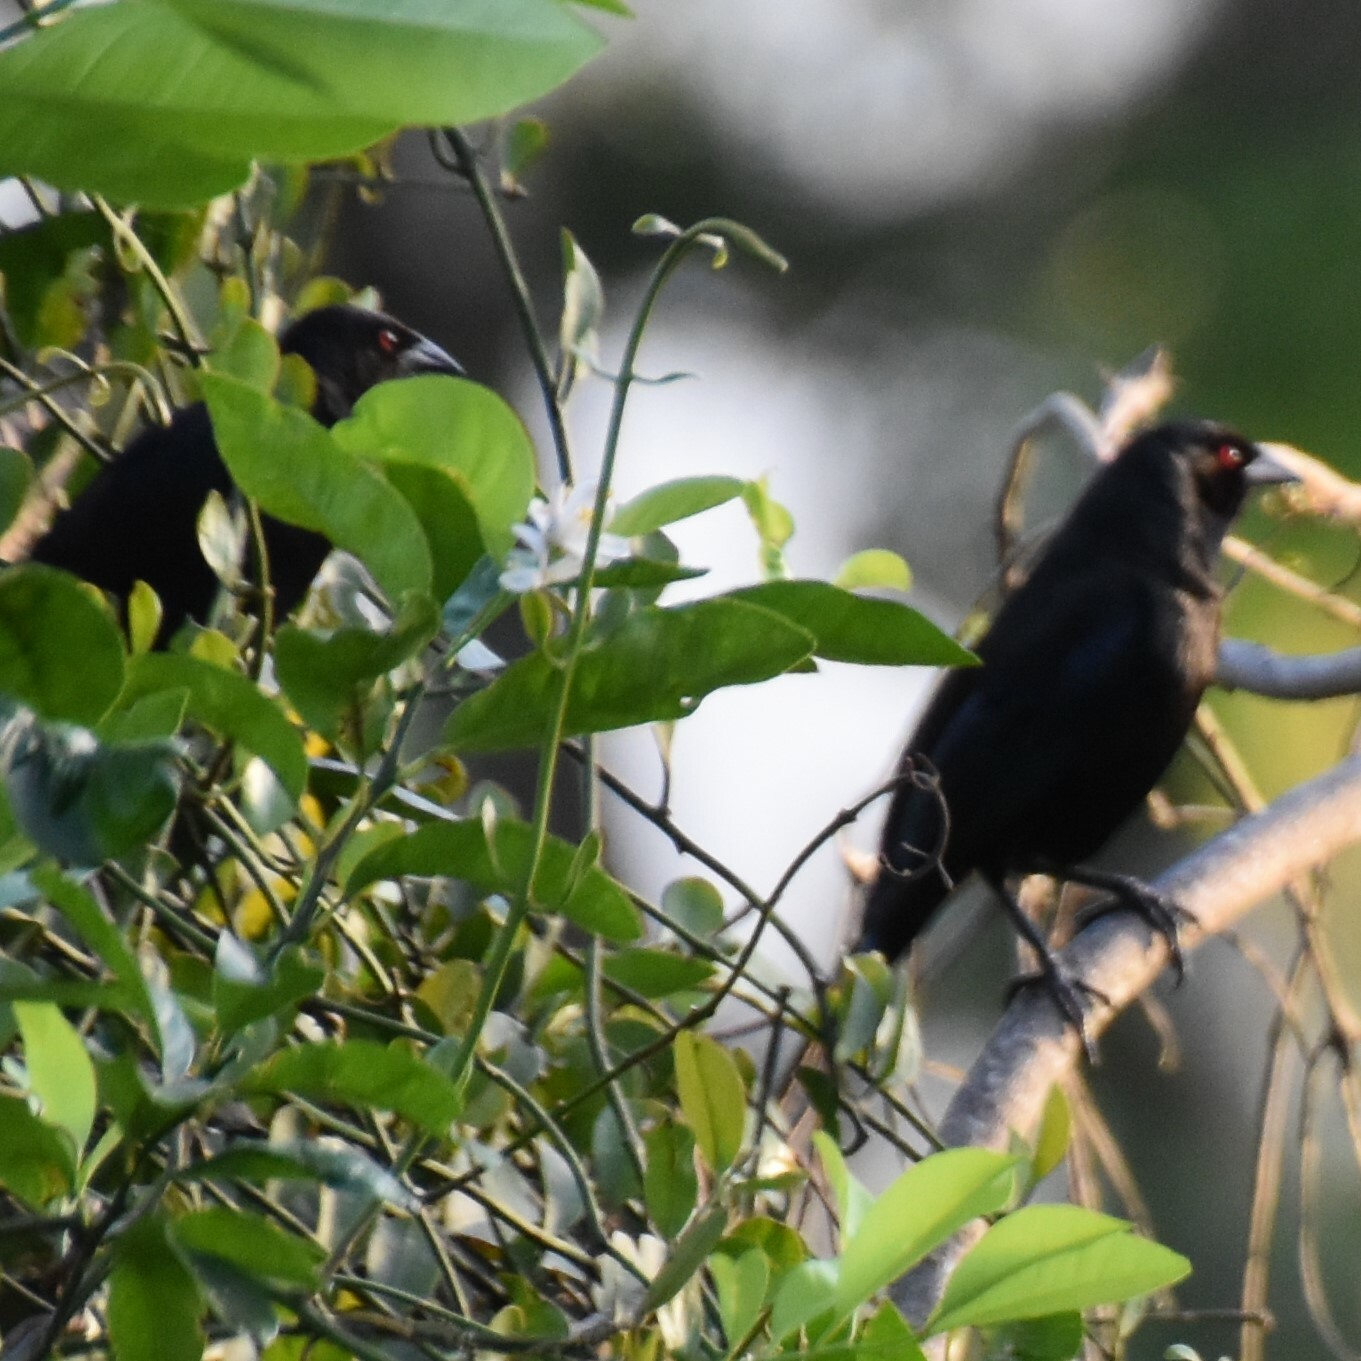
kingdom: Animalia
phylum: Chordata
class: Aves
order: Passeriformes
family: Icteridae
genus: Molothrus
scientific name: Molothrus aeneus
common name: Bronzed cowbird
